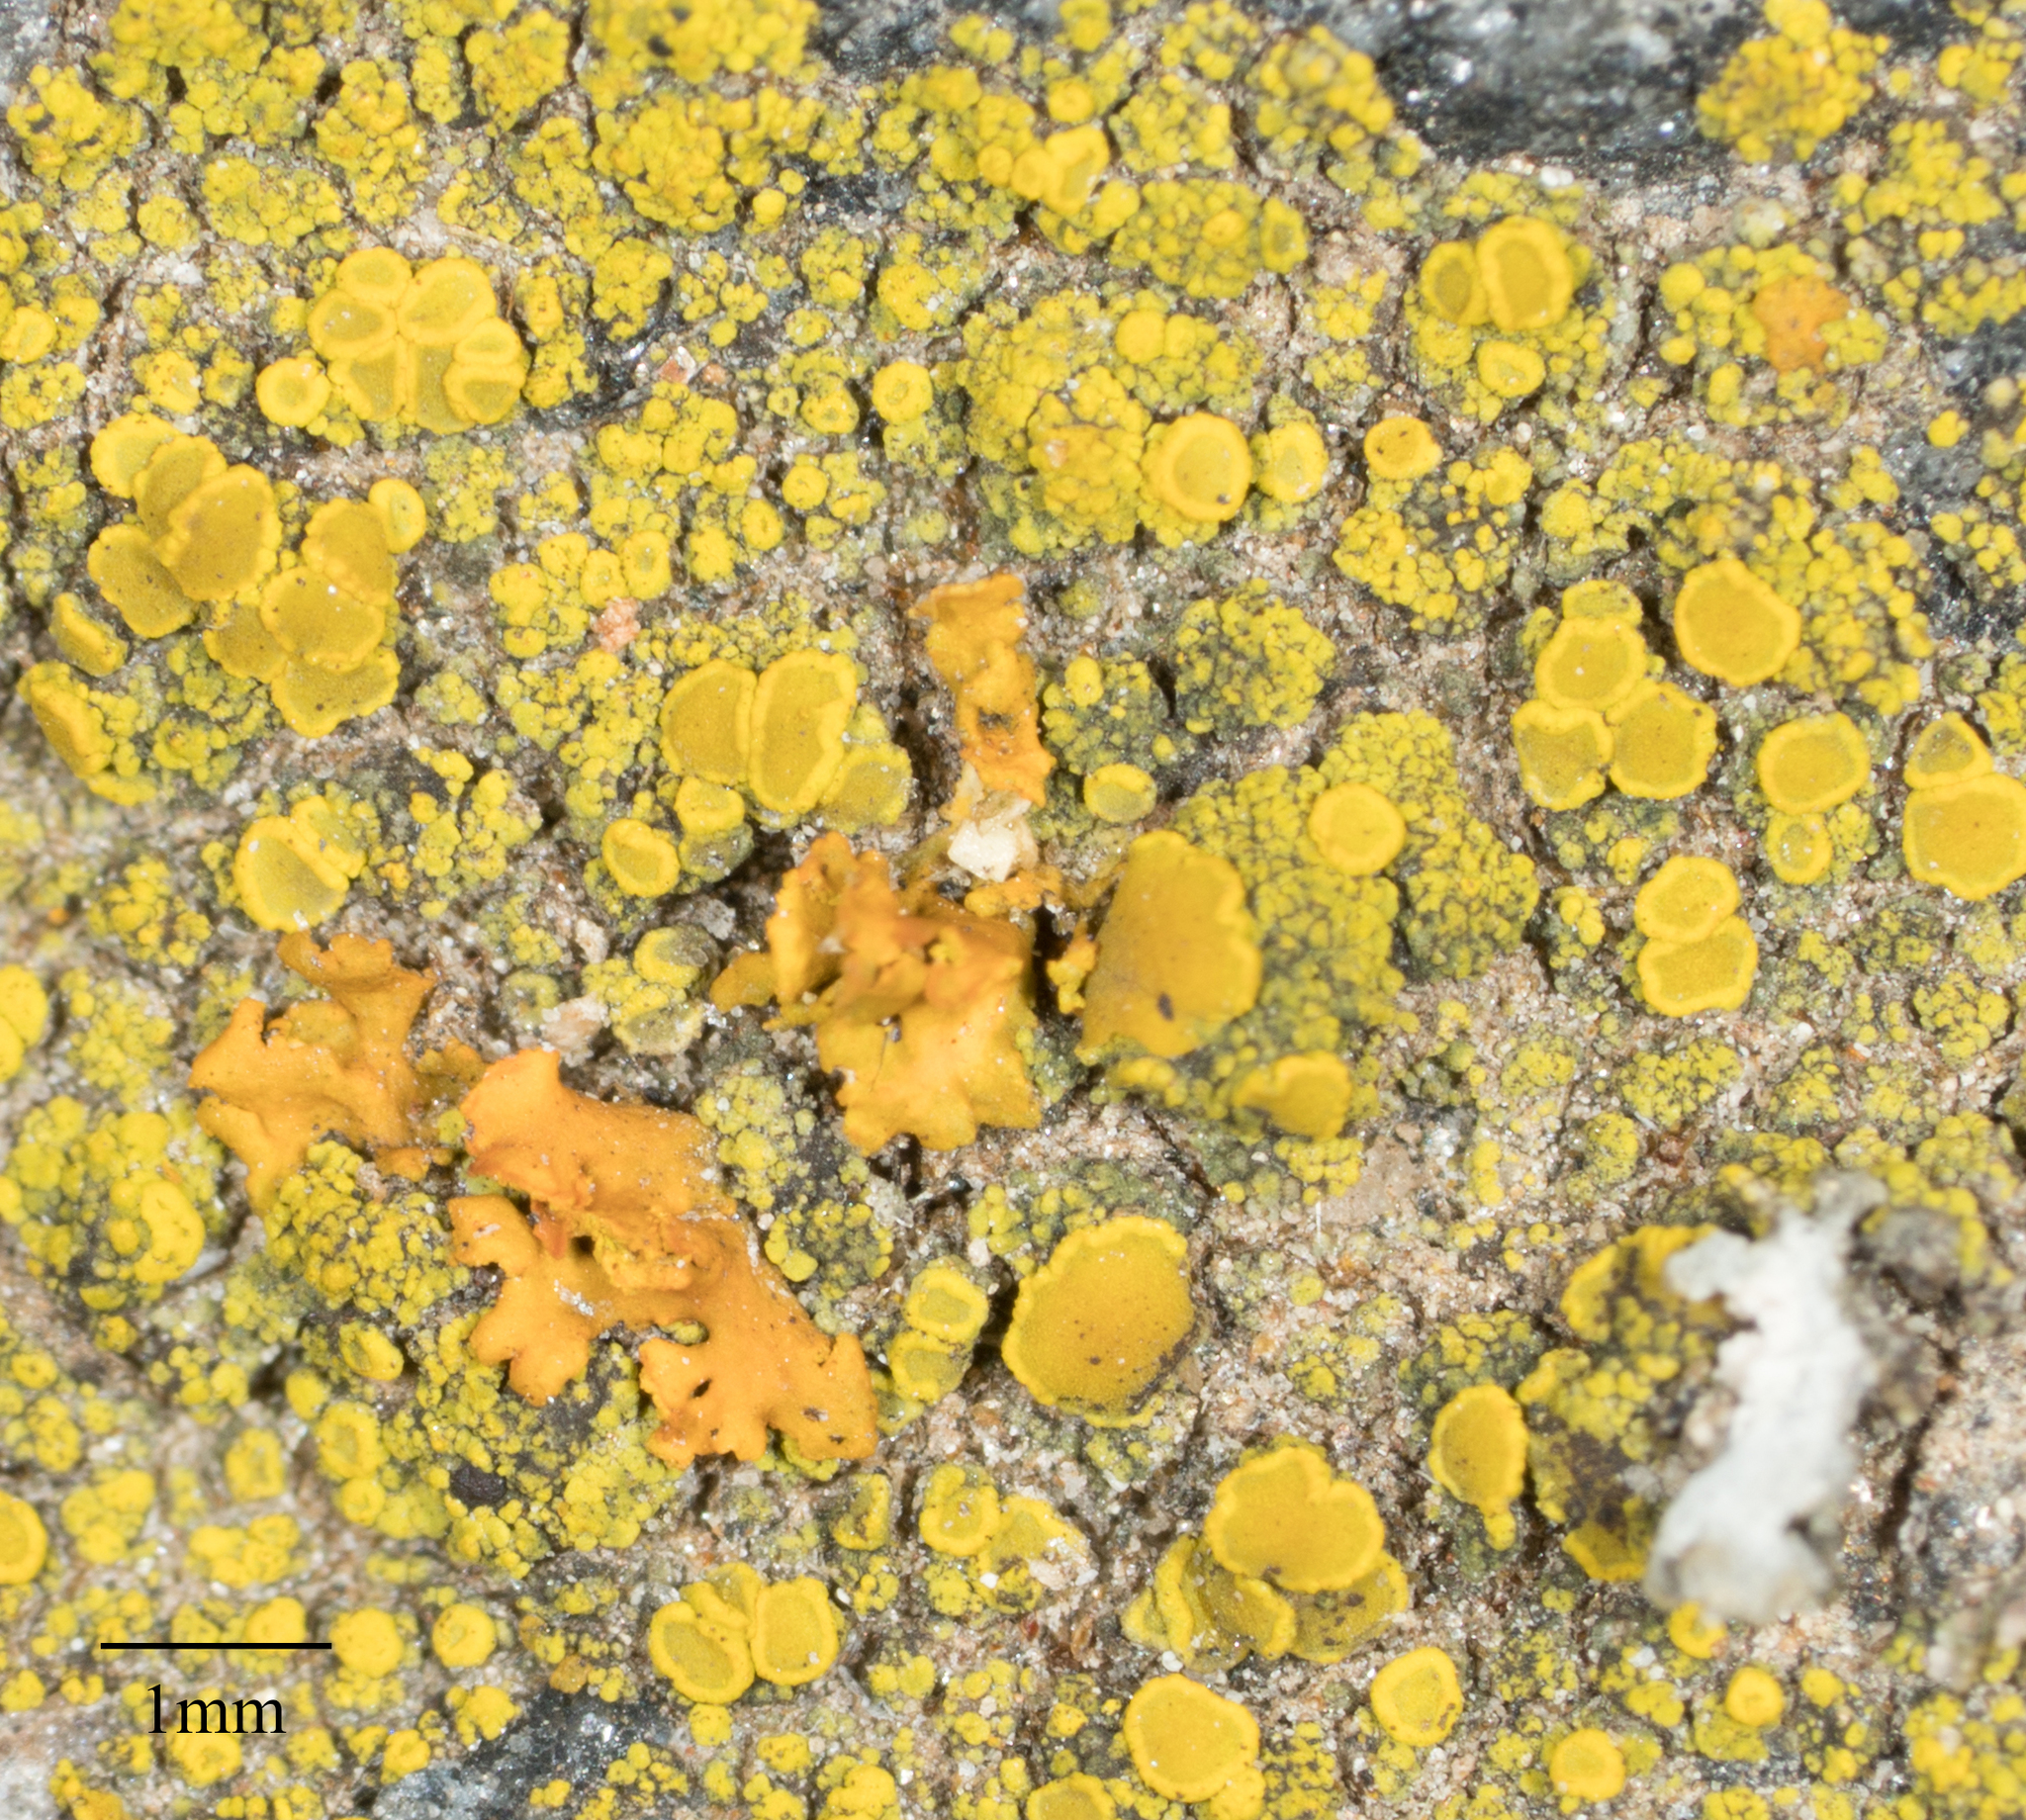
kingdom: Fungi
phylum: Ascomycota
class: Lecanoromycetes
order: Teloschistales
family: Teloschistaceae
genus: Oxneria
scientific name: Oxneria fallax
